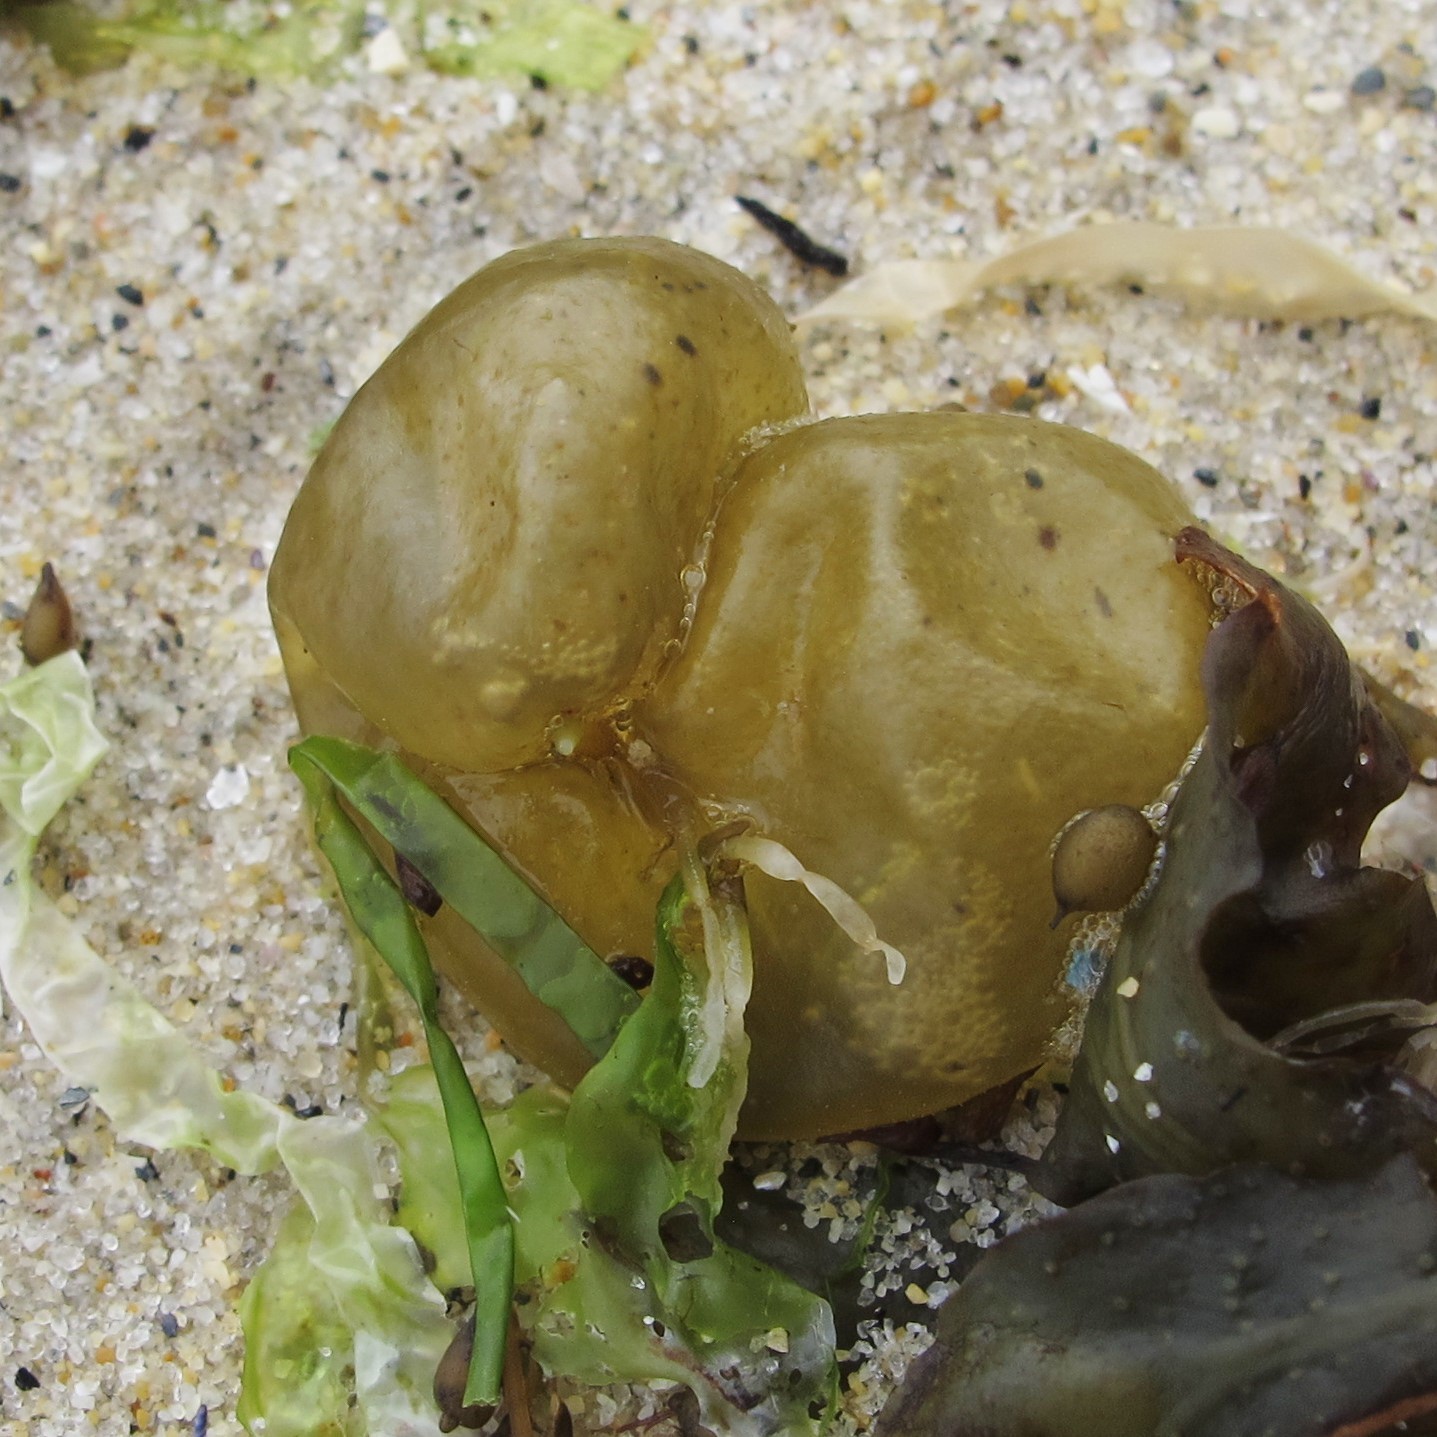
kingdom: Chromista
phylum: Ochrophyta
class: Phaeophyceae
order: Scytosiphonales
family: Scytosiphonaceae
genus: Colpomenia
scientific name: Colpomenia peregrina
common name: Oyster thief
